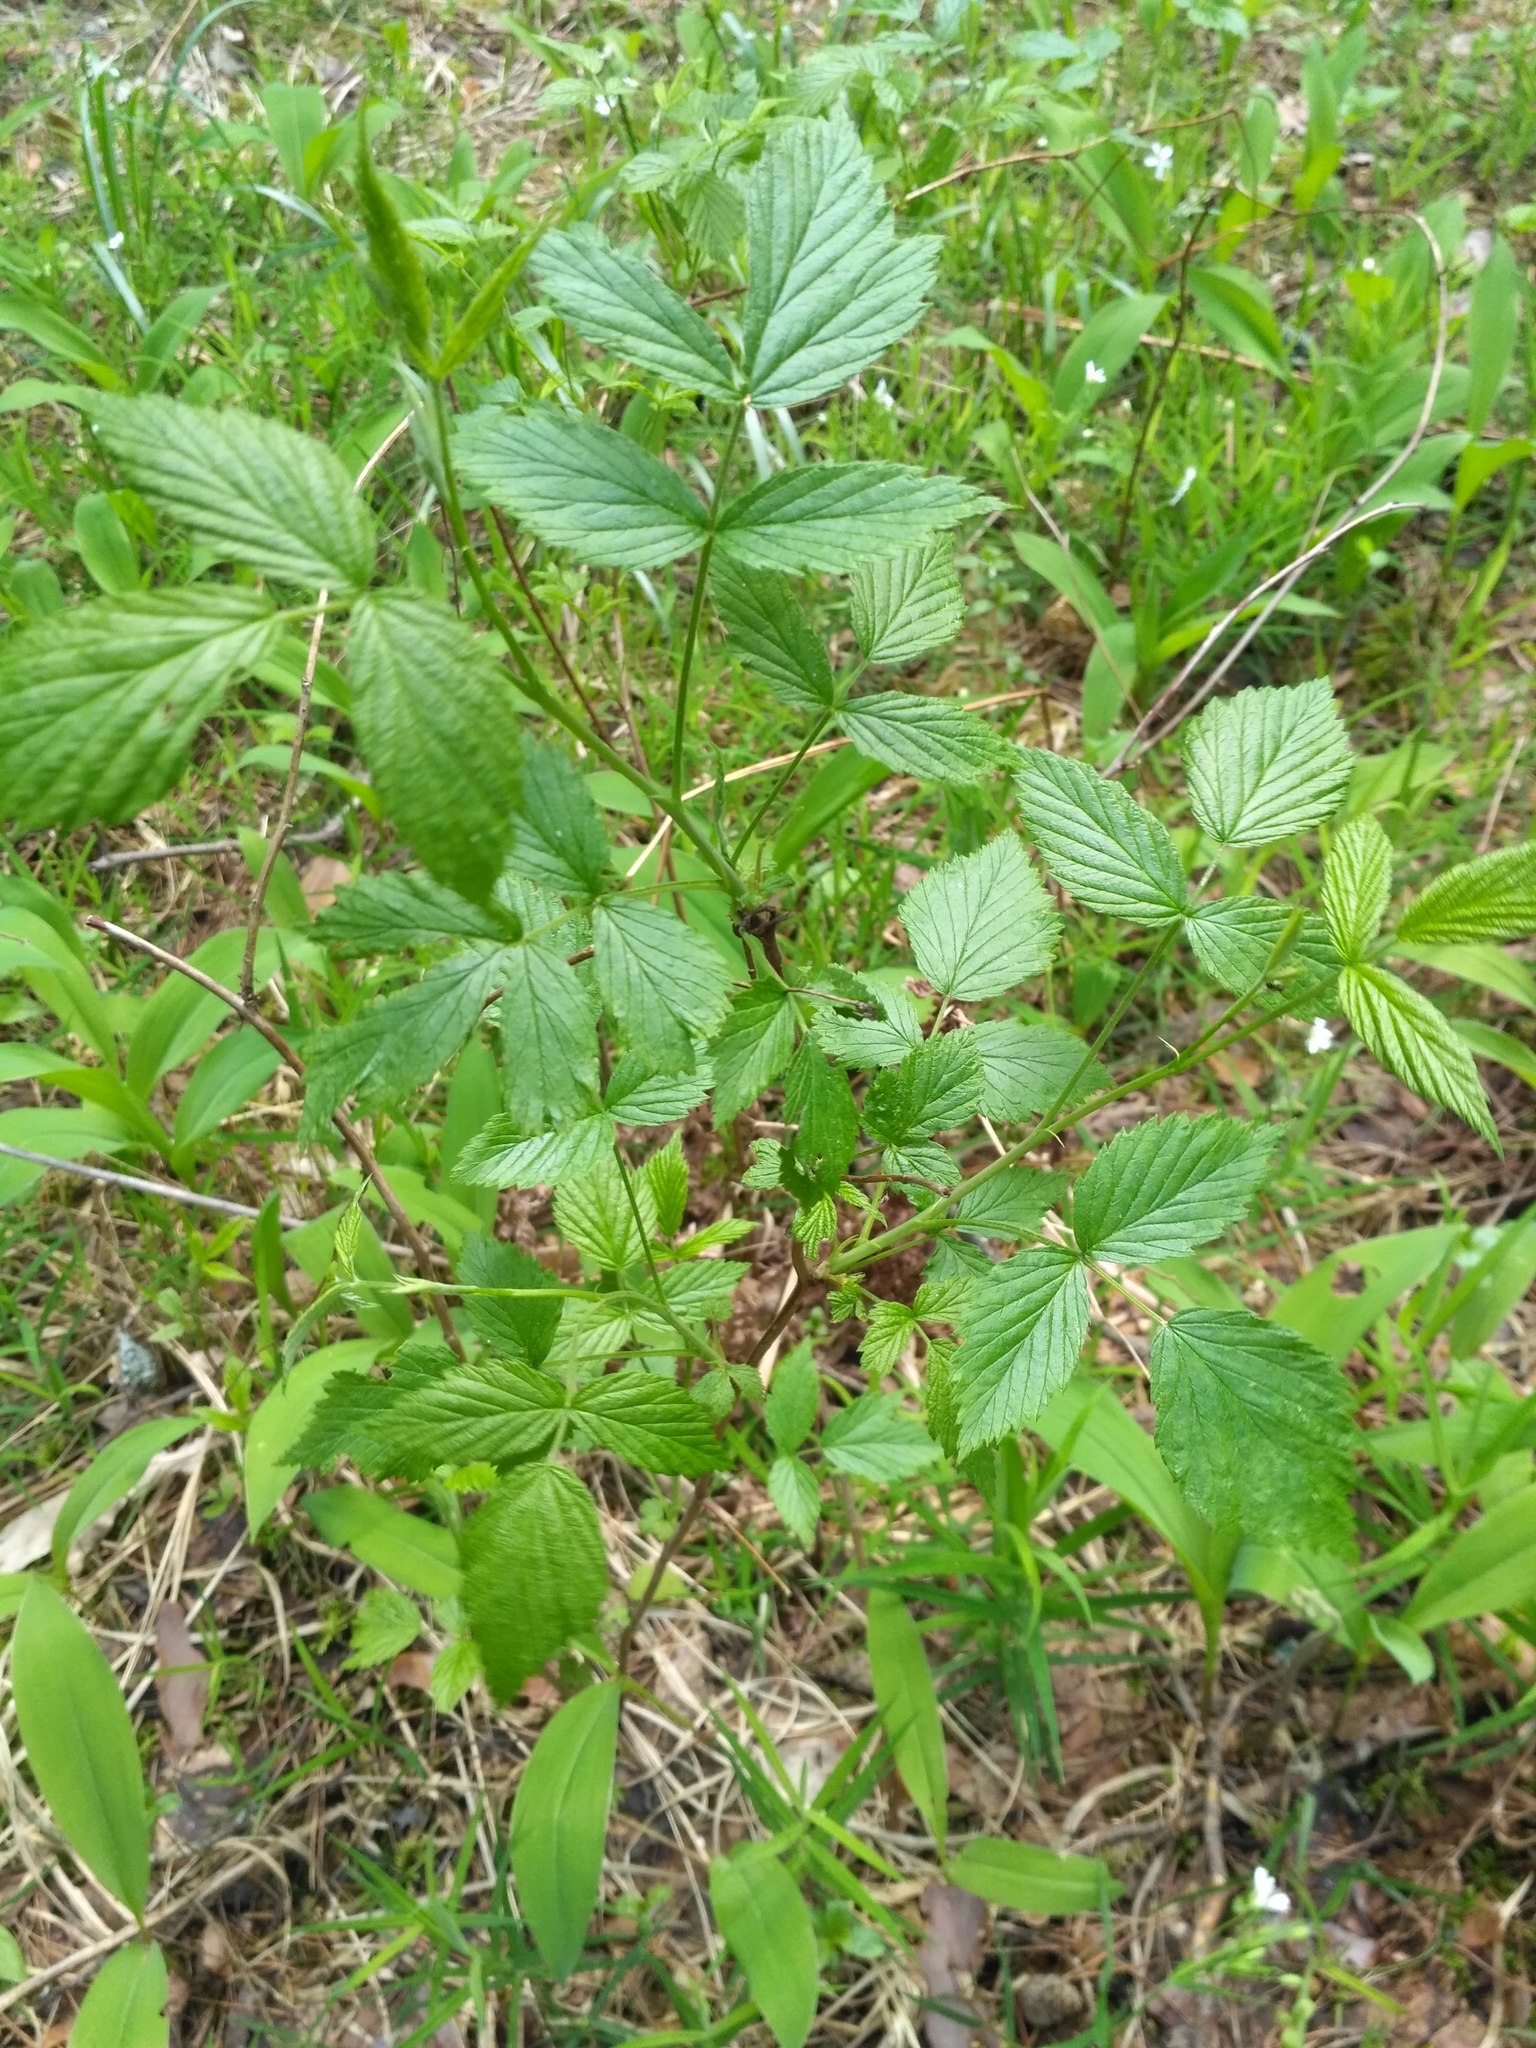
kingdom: Plantae
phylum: Tracheophyta
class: Magnoliopsida
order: Rosales
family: Rosaceae
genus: Rubus
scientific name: Rubus idaeus
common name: Raspberry
